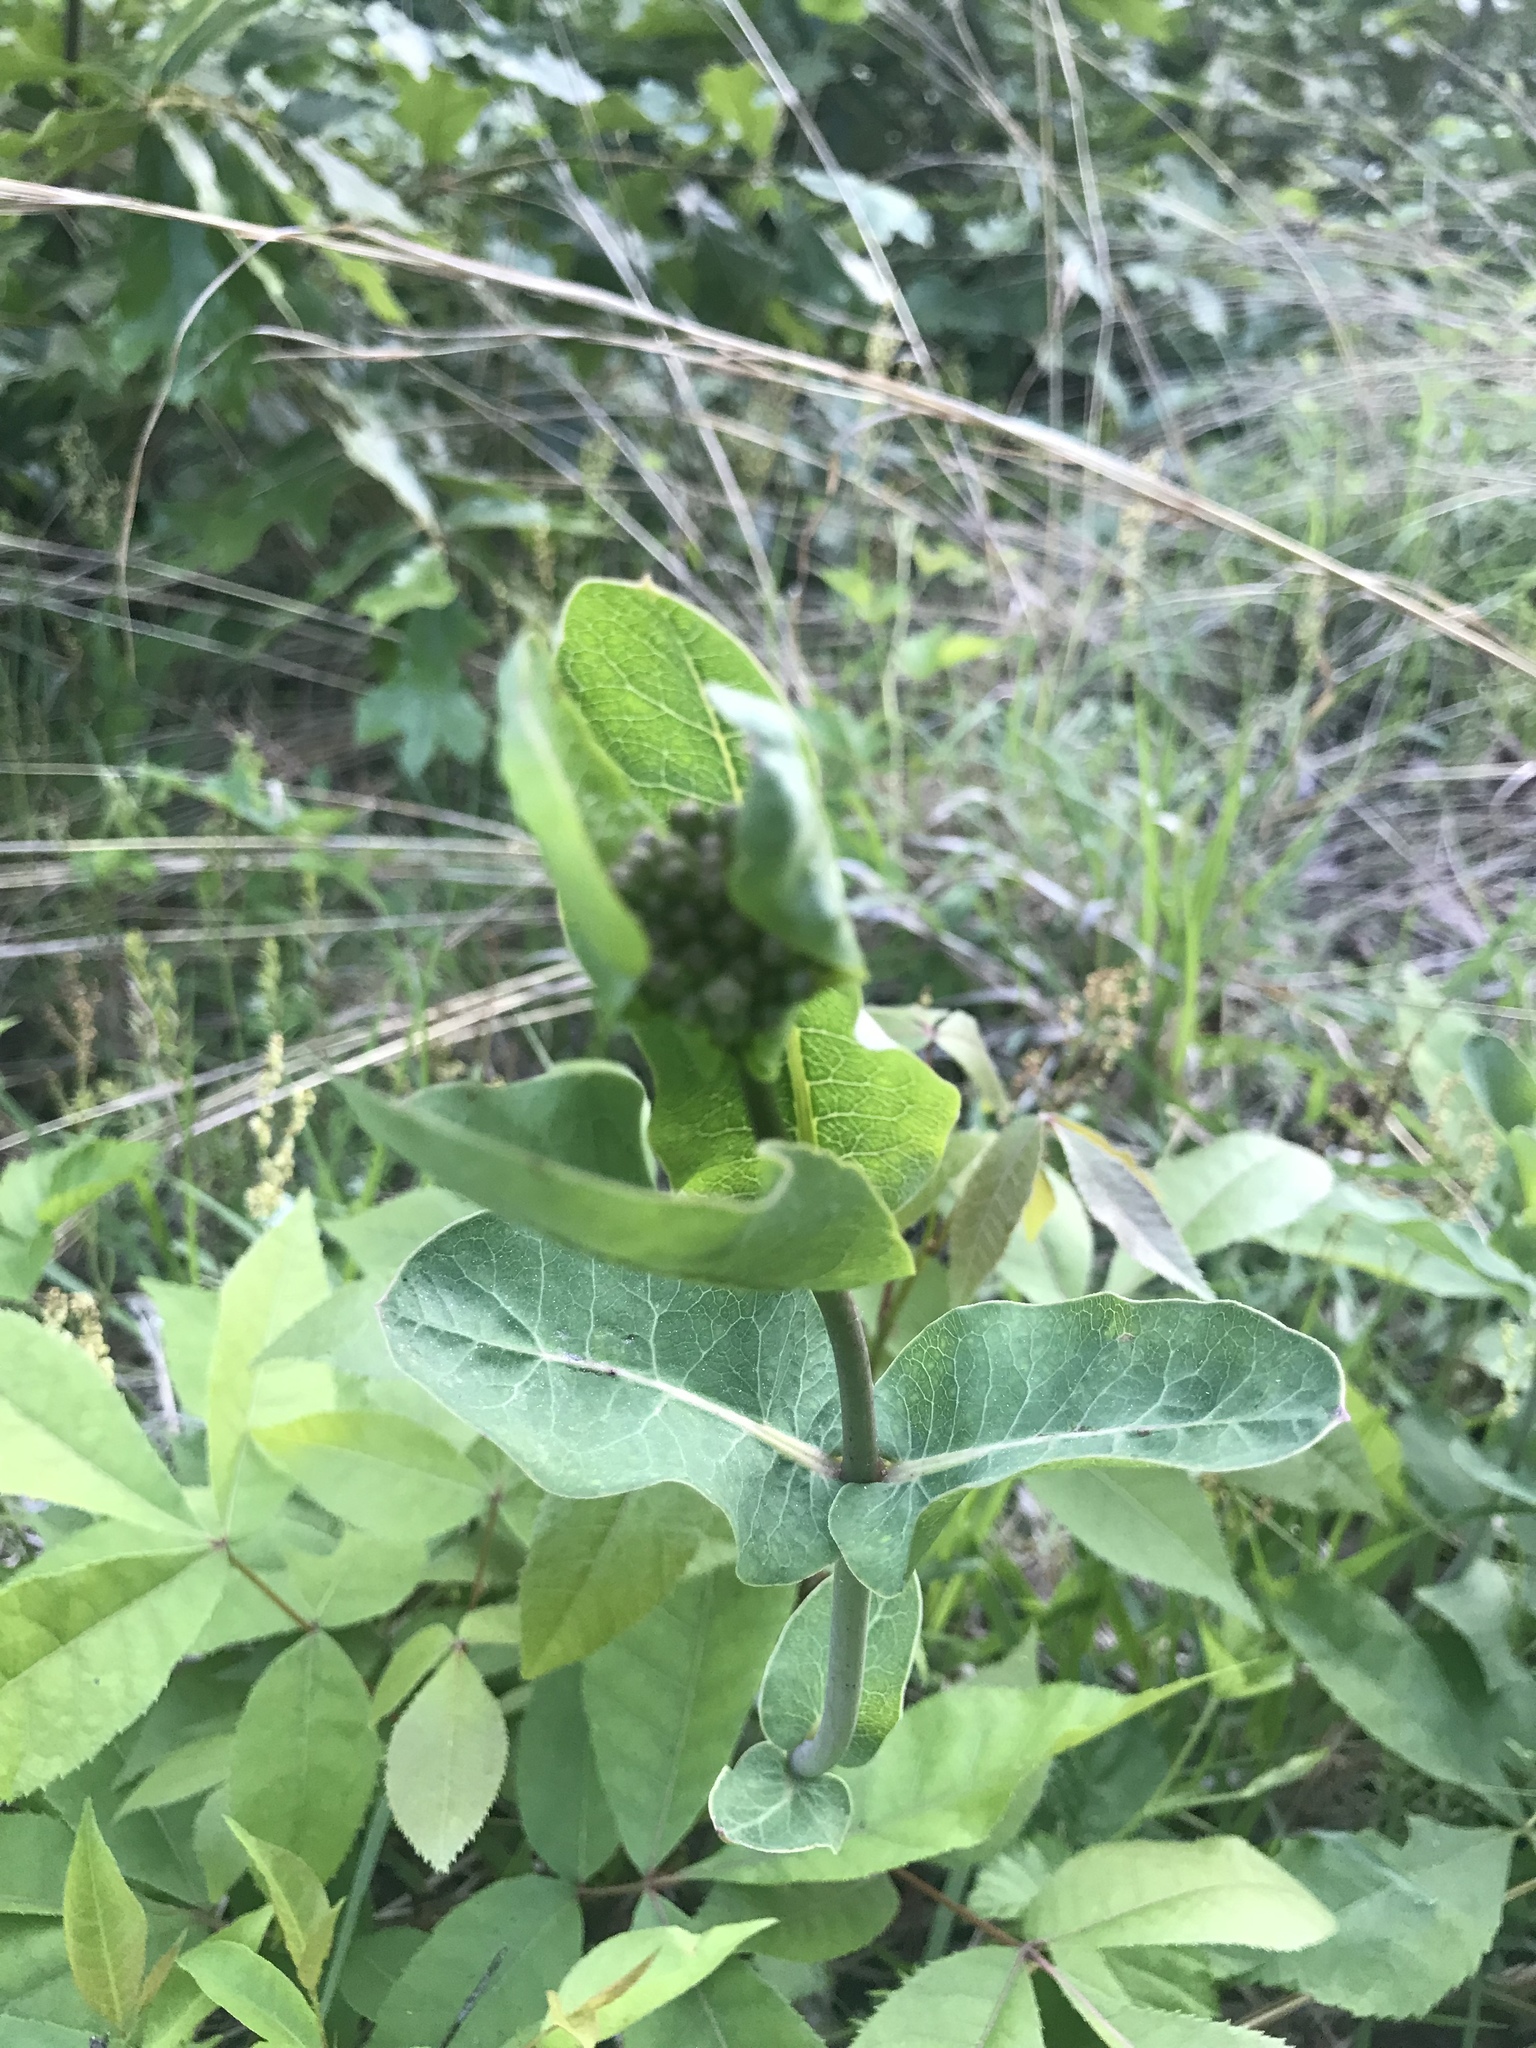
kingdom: Plantae
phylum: Tracheophyta
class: Magnoliopsida
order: Gentianales
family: Apocynaceae
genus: Asclepias
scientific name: Asclepias amplexicaulis
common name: Blunt-leaf milkweed
